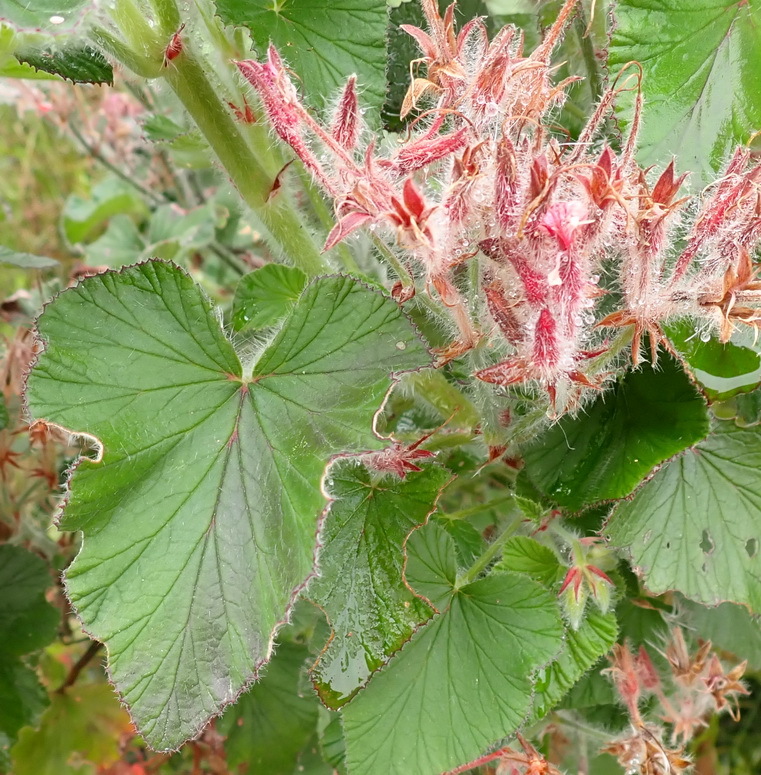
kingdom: Plantae
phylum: Tracheophyta
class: Magnoliopsida
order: Geraniales
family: Geraniaceae
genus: Pelargonium
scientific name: Pelargonium cordifolium
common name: Heart-leaf pelargonium
